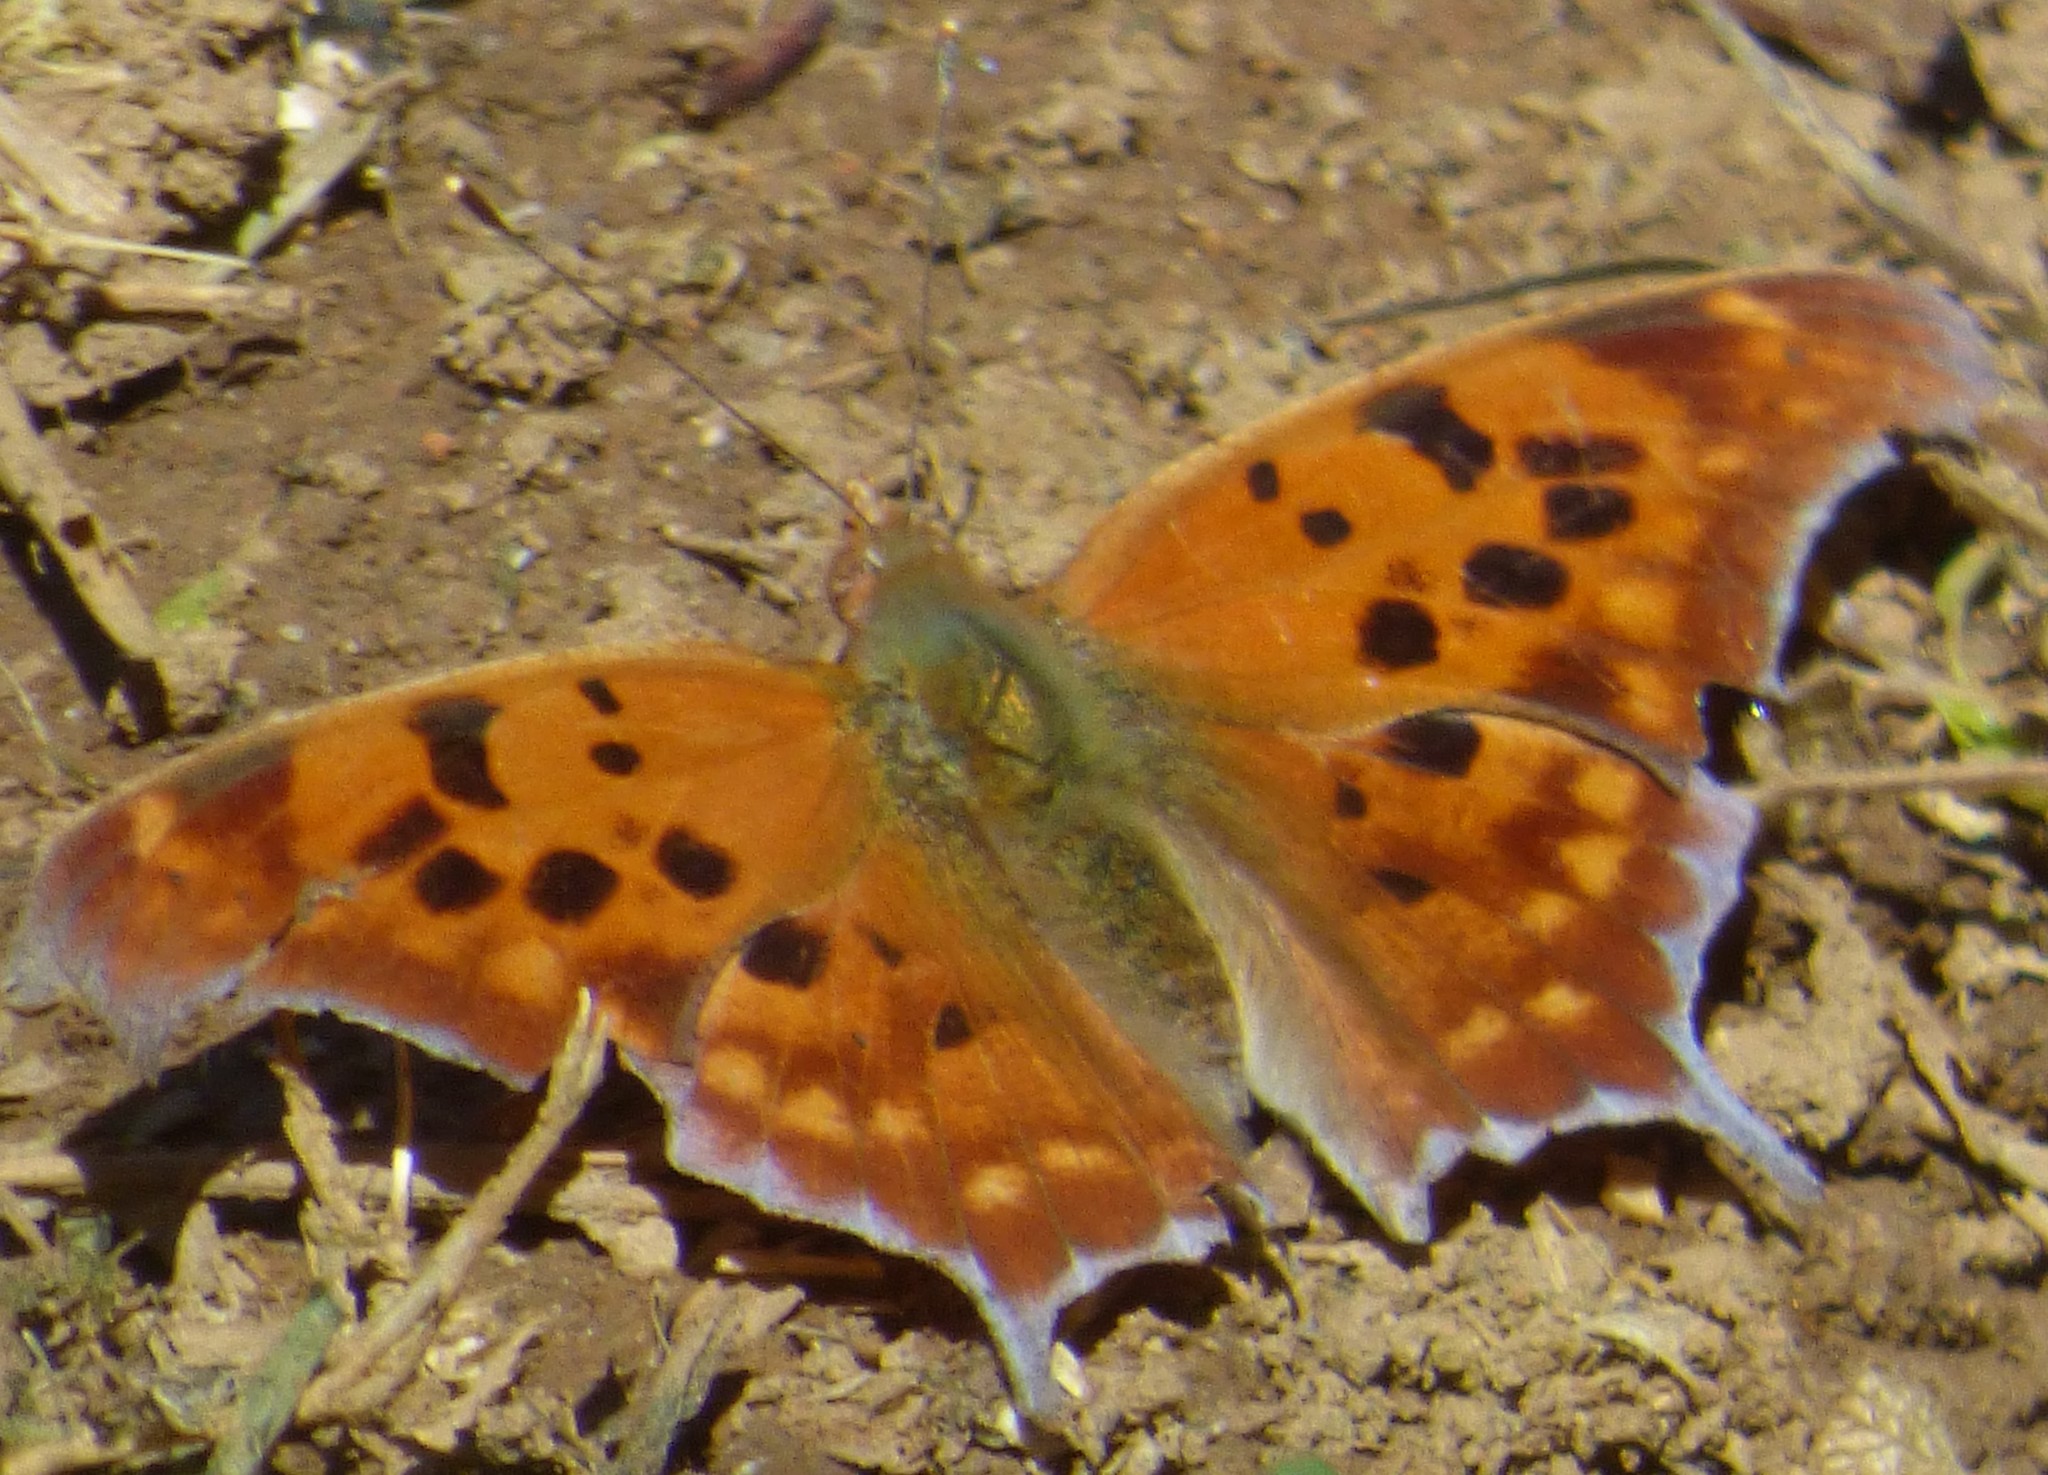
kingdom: Animalia
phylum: Arthropoda
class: Insecta
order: Lepidoptera
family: Nymphalidae
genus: Polygonia
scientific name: Polygonia interrogationis
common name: Question mark
